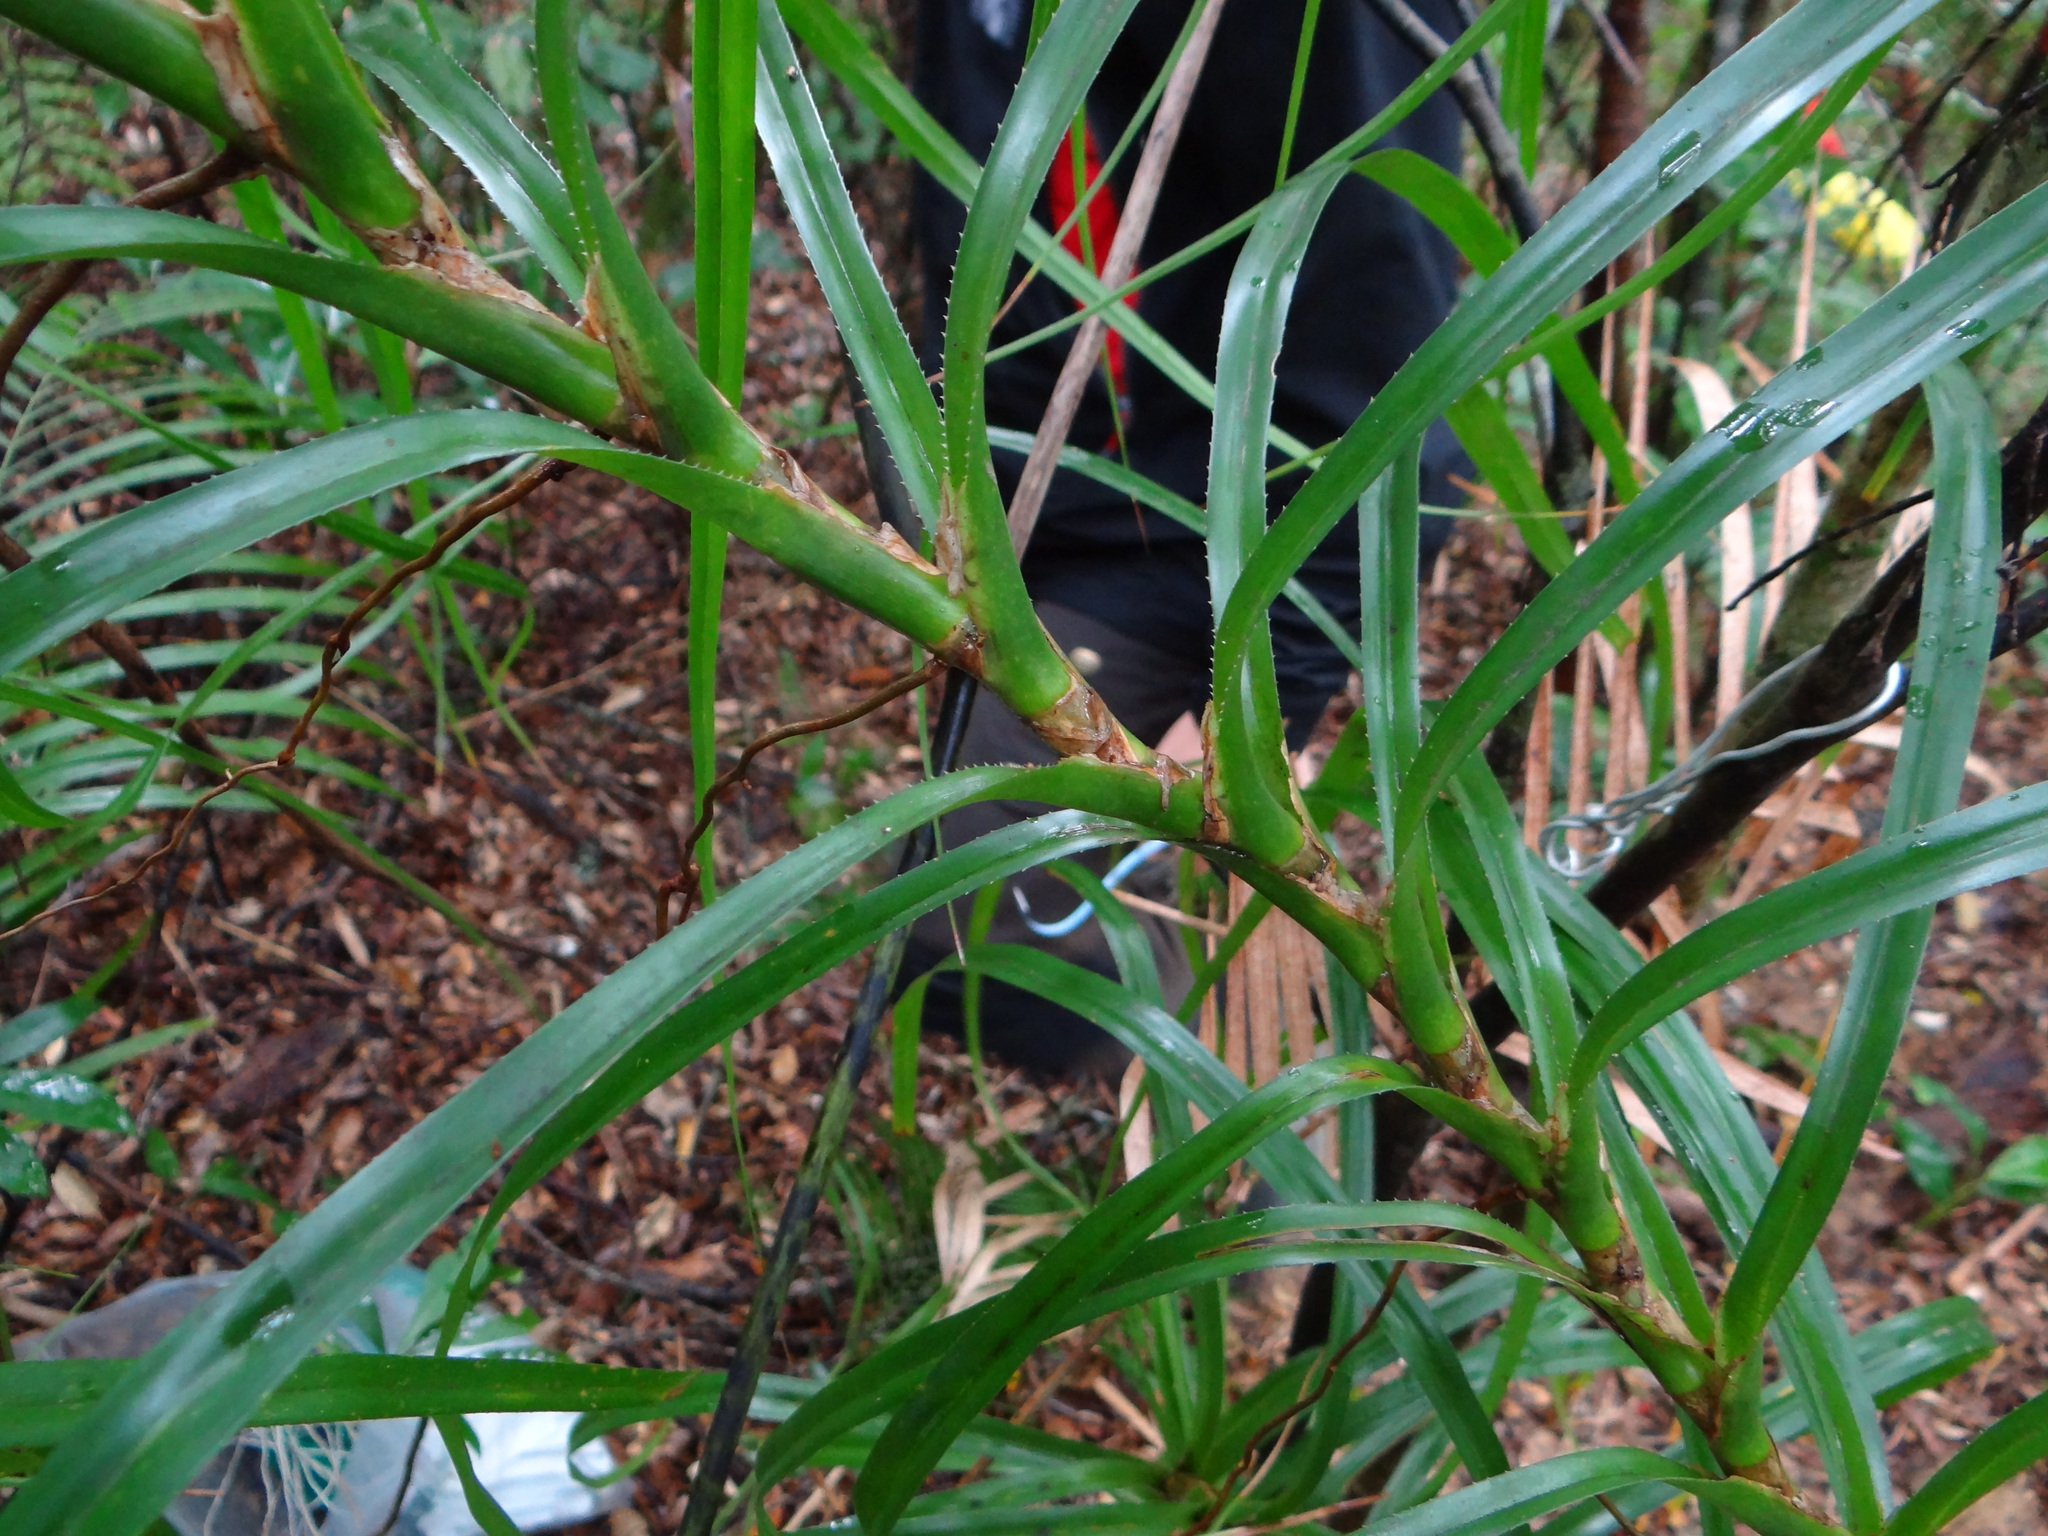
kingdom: Plantae
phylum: Tracheophyta
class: Liliopsida
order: Pandanales
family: Pandanaceae
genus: Freycinetia
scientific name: Freycinetia formosana
